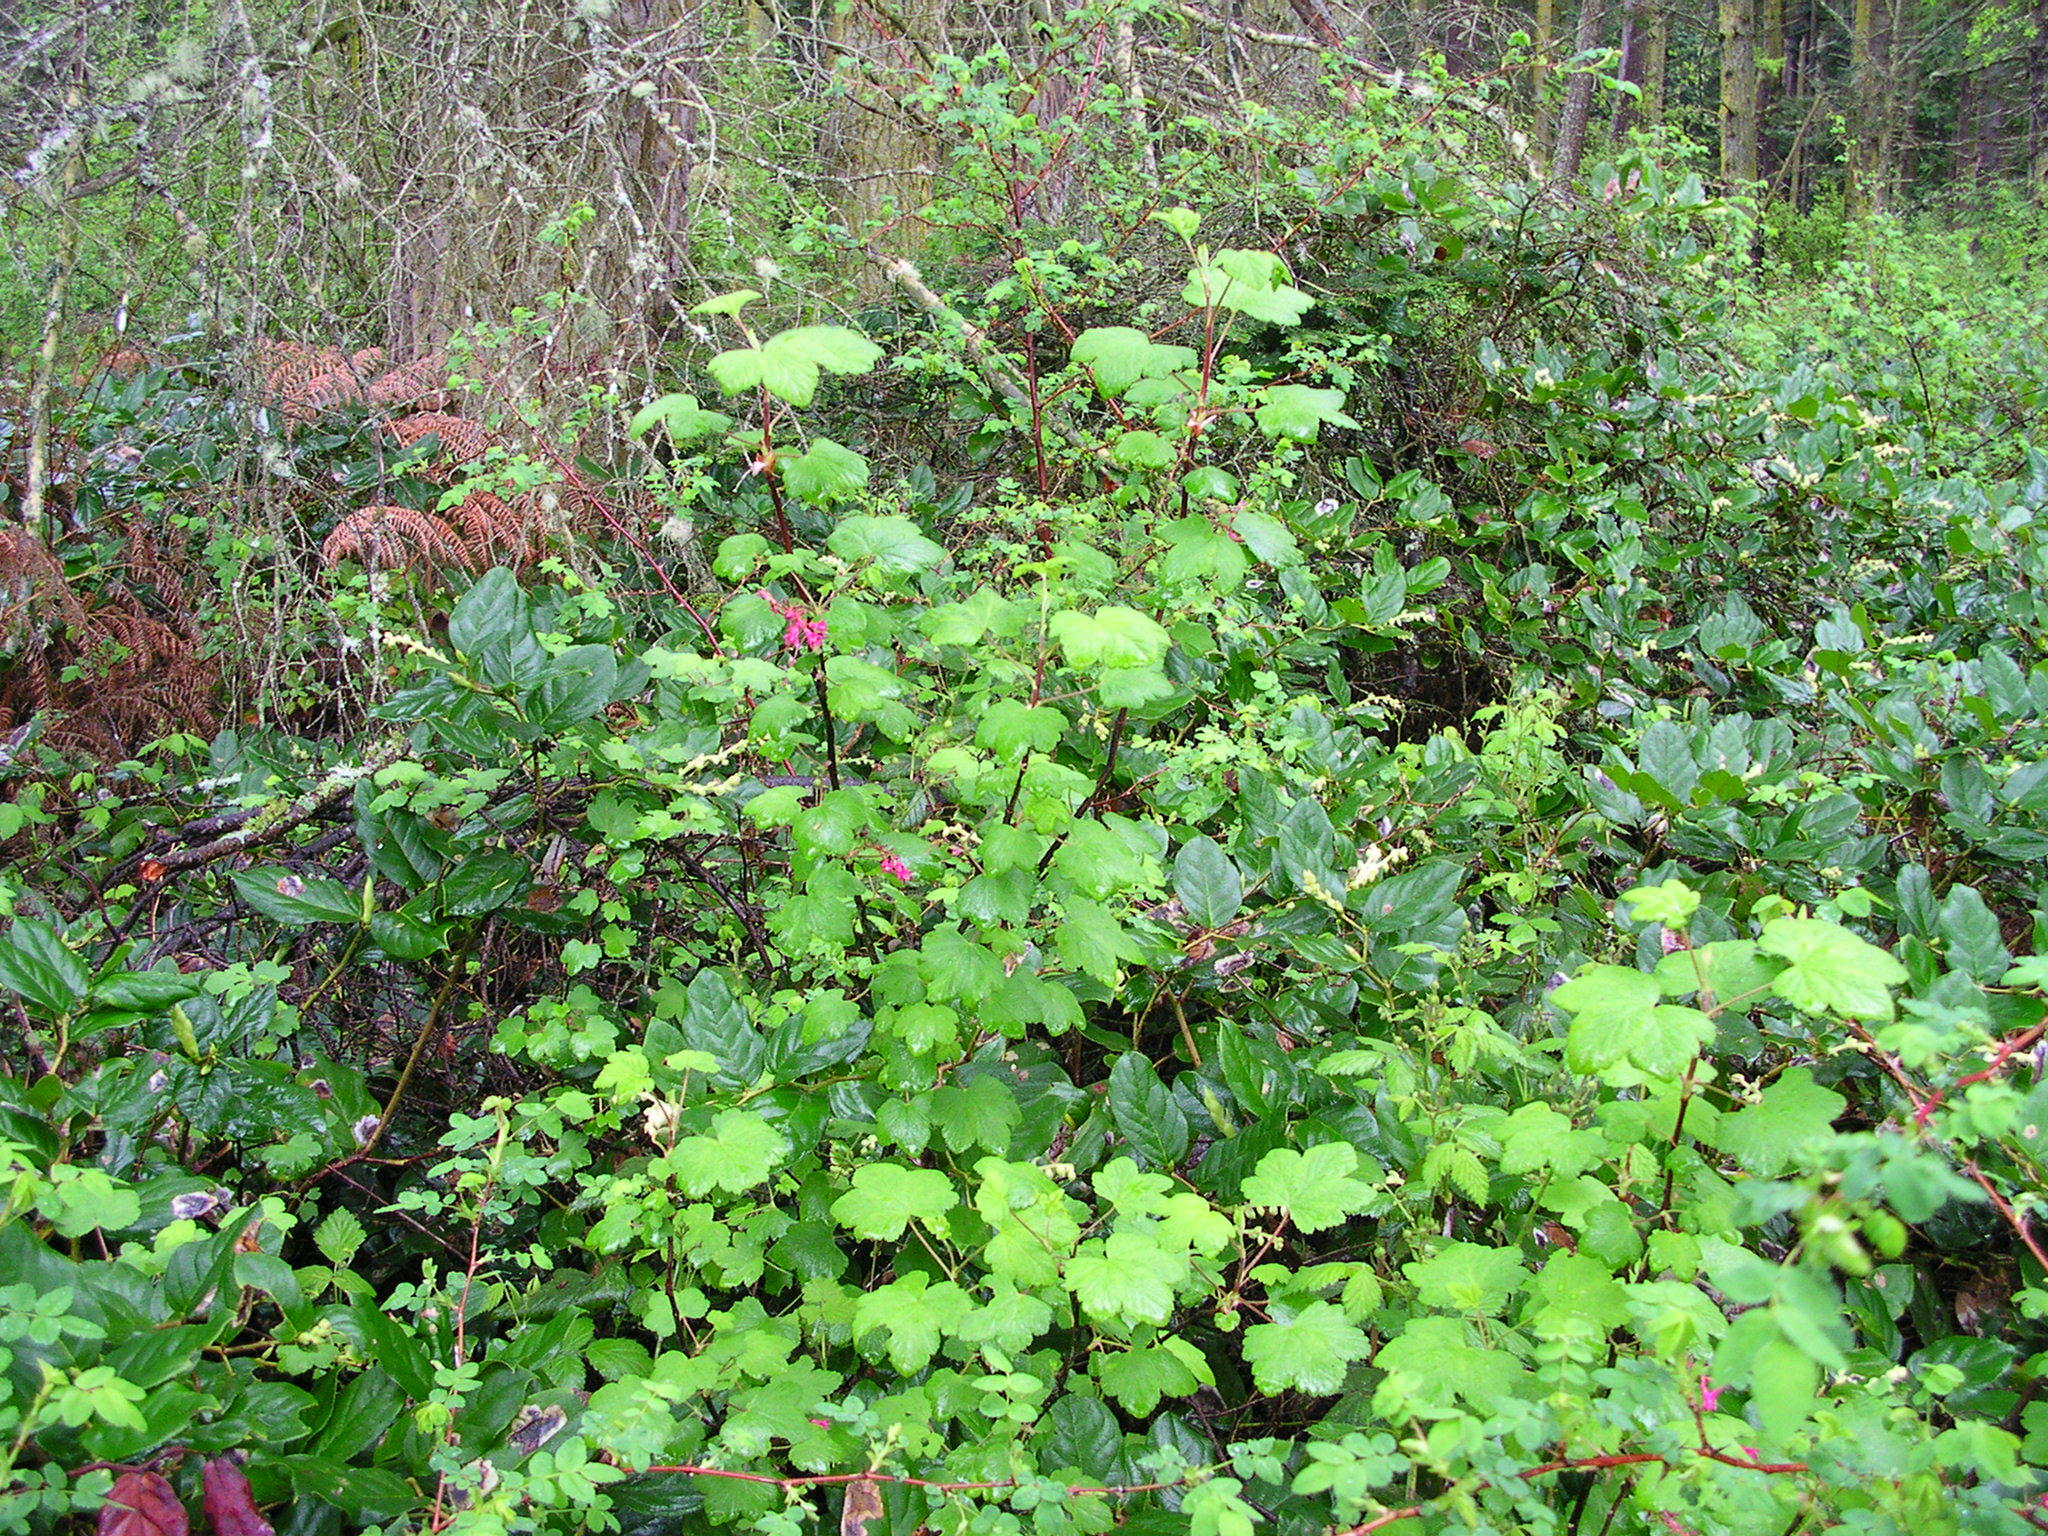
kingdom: Plantae
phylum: Tracheophyta
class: Magnoliopsida
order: Saxifragales
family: Grossulariaceae
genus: Ribes
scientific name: Ribes sanguineum
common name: Flowering currant
